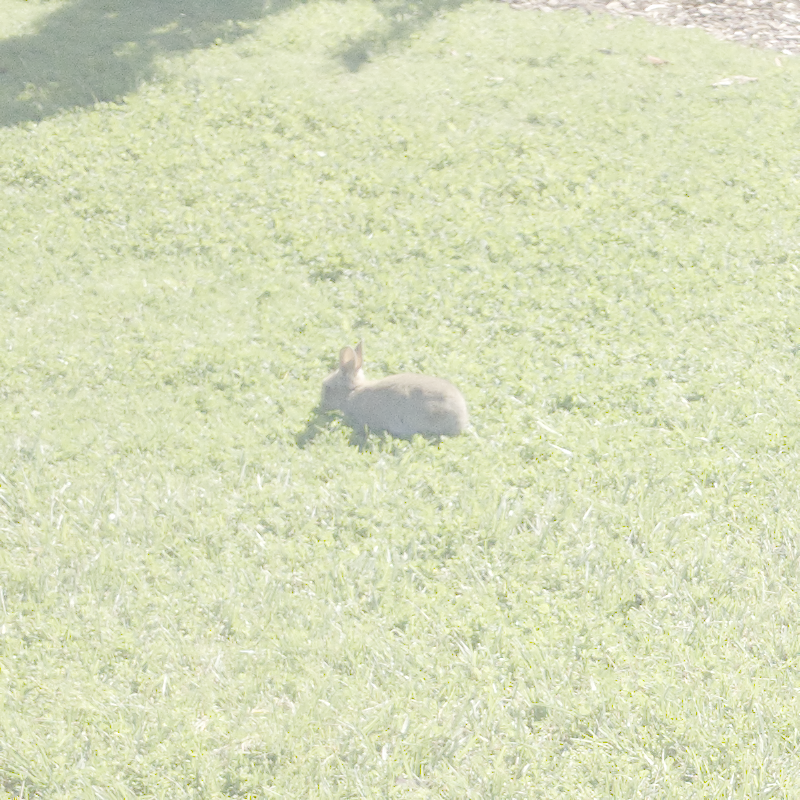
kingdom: Animalia
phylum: Chordata
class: Mammalia
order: Lagomorpha
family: Leporidae
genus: Oryctolagus
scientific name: Oryctolagus cuniculus
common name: European rabbit
